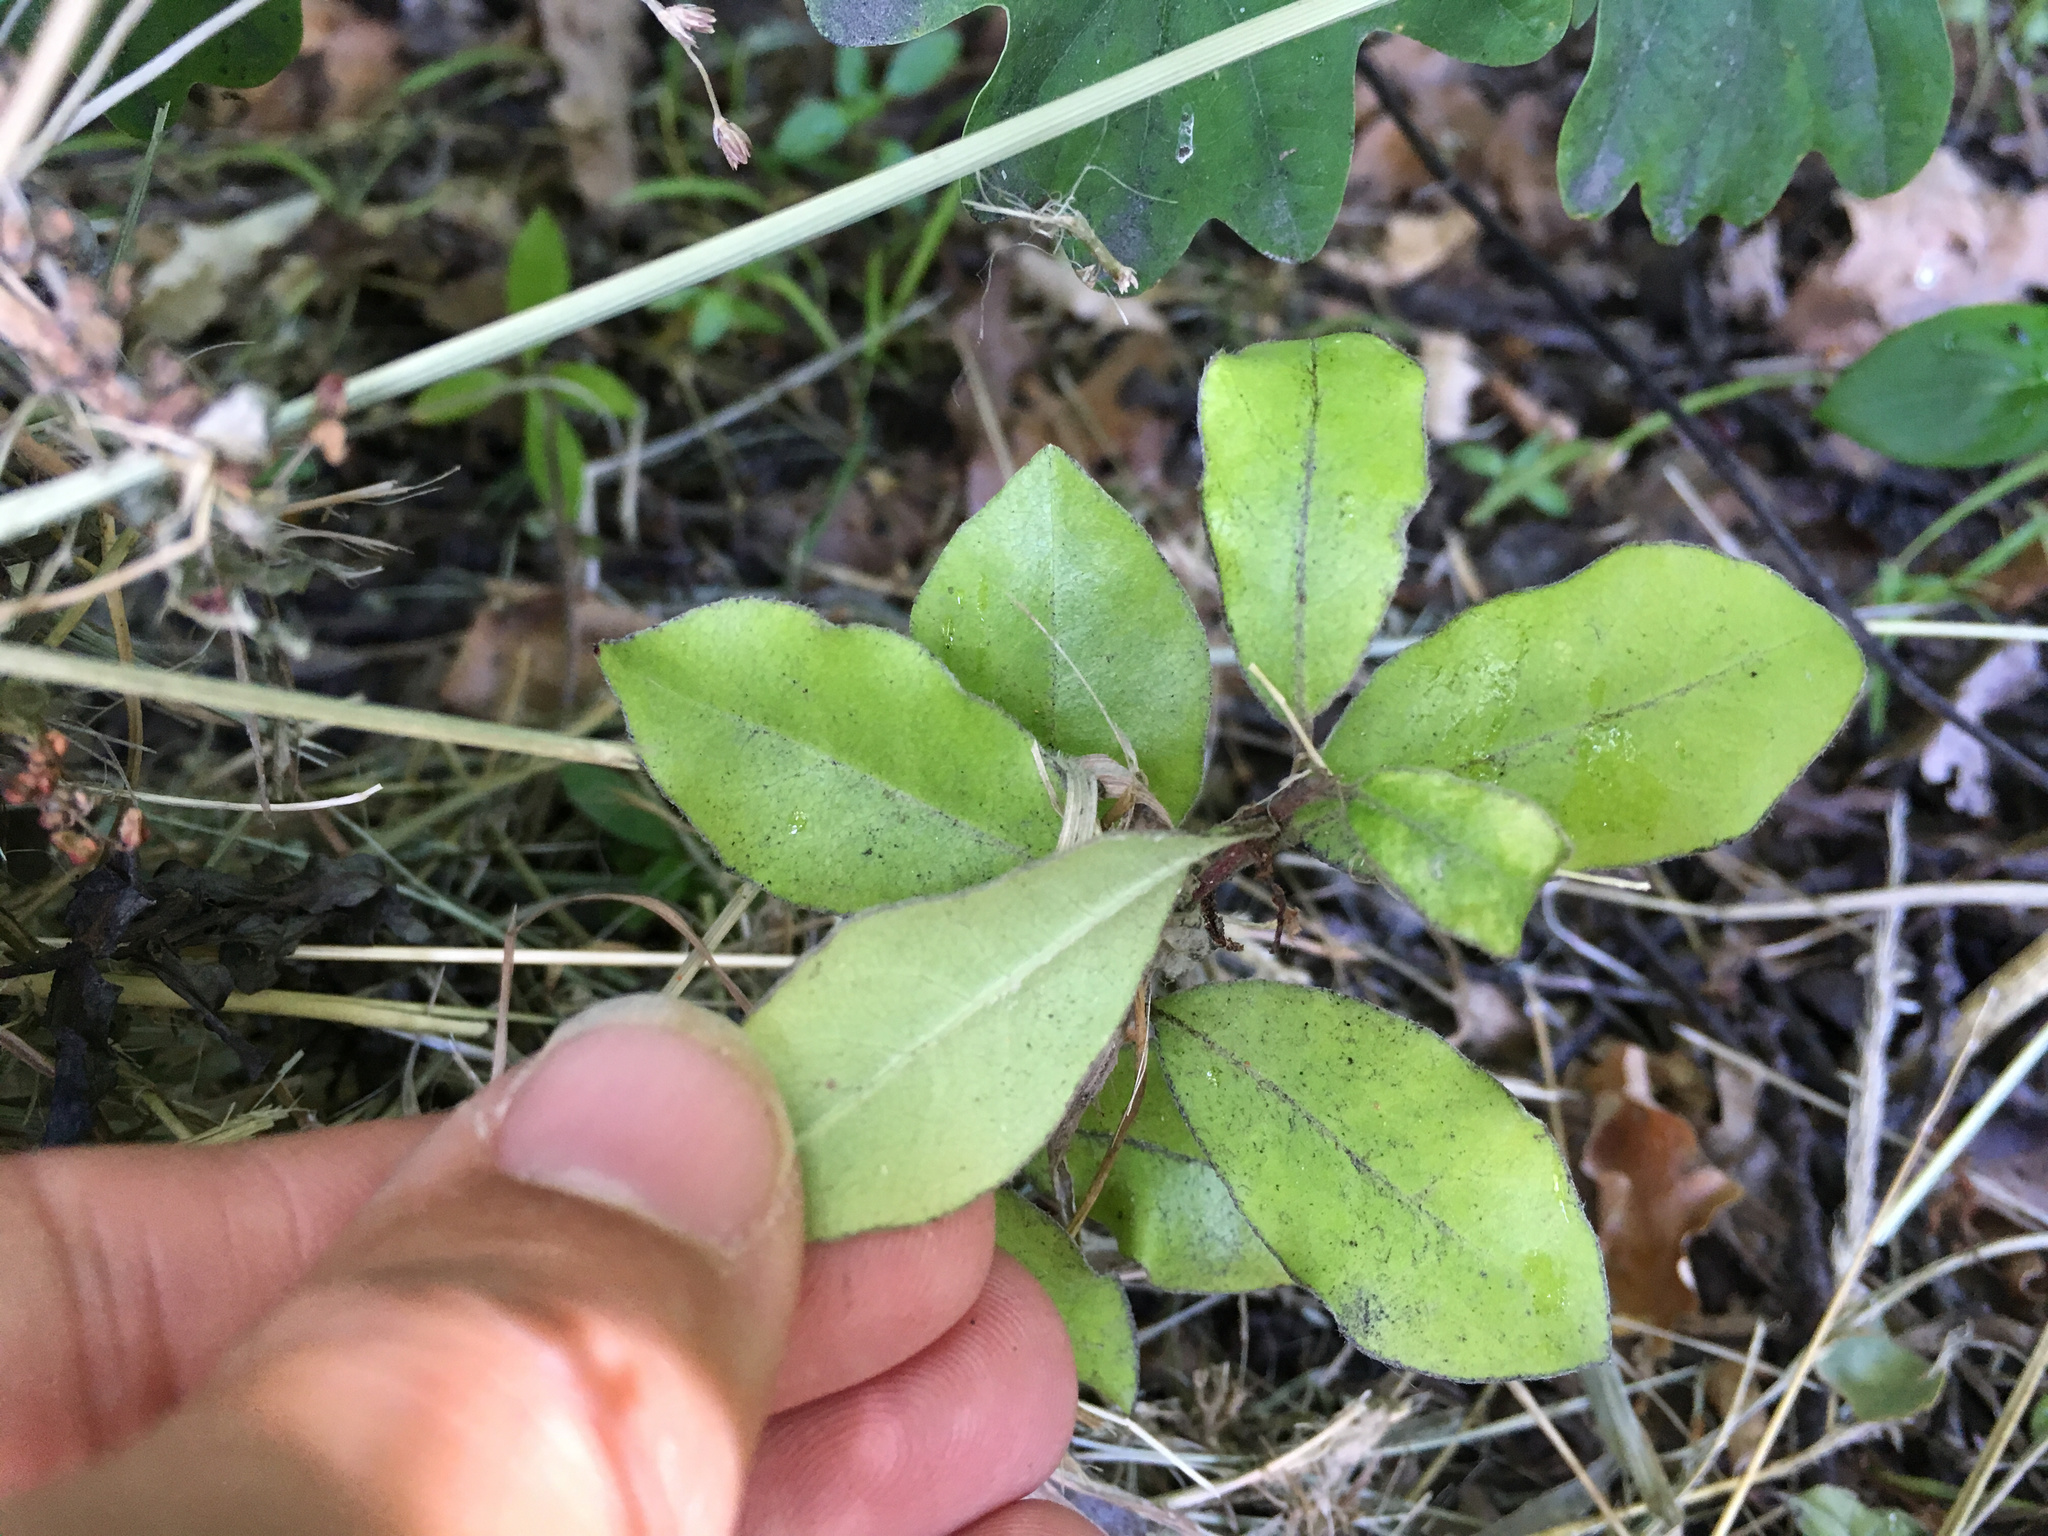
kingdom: Plantae
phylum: Tracheophyta
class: Magnoliopsida
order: Apiales
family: Pittosporaceae
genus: Pittosporum
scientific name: Pittosporum tenuifolium
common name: Kohuhu
